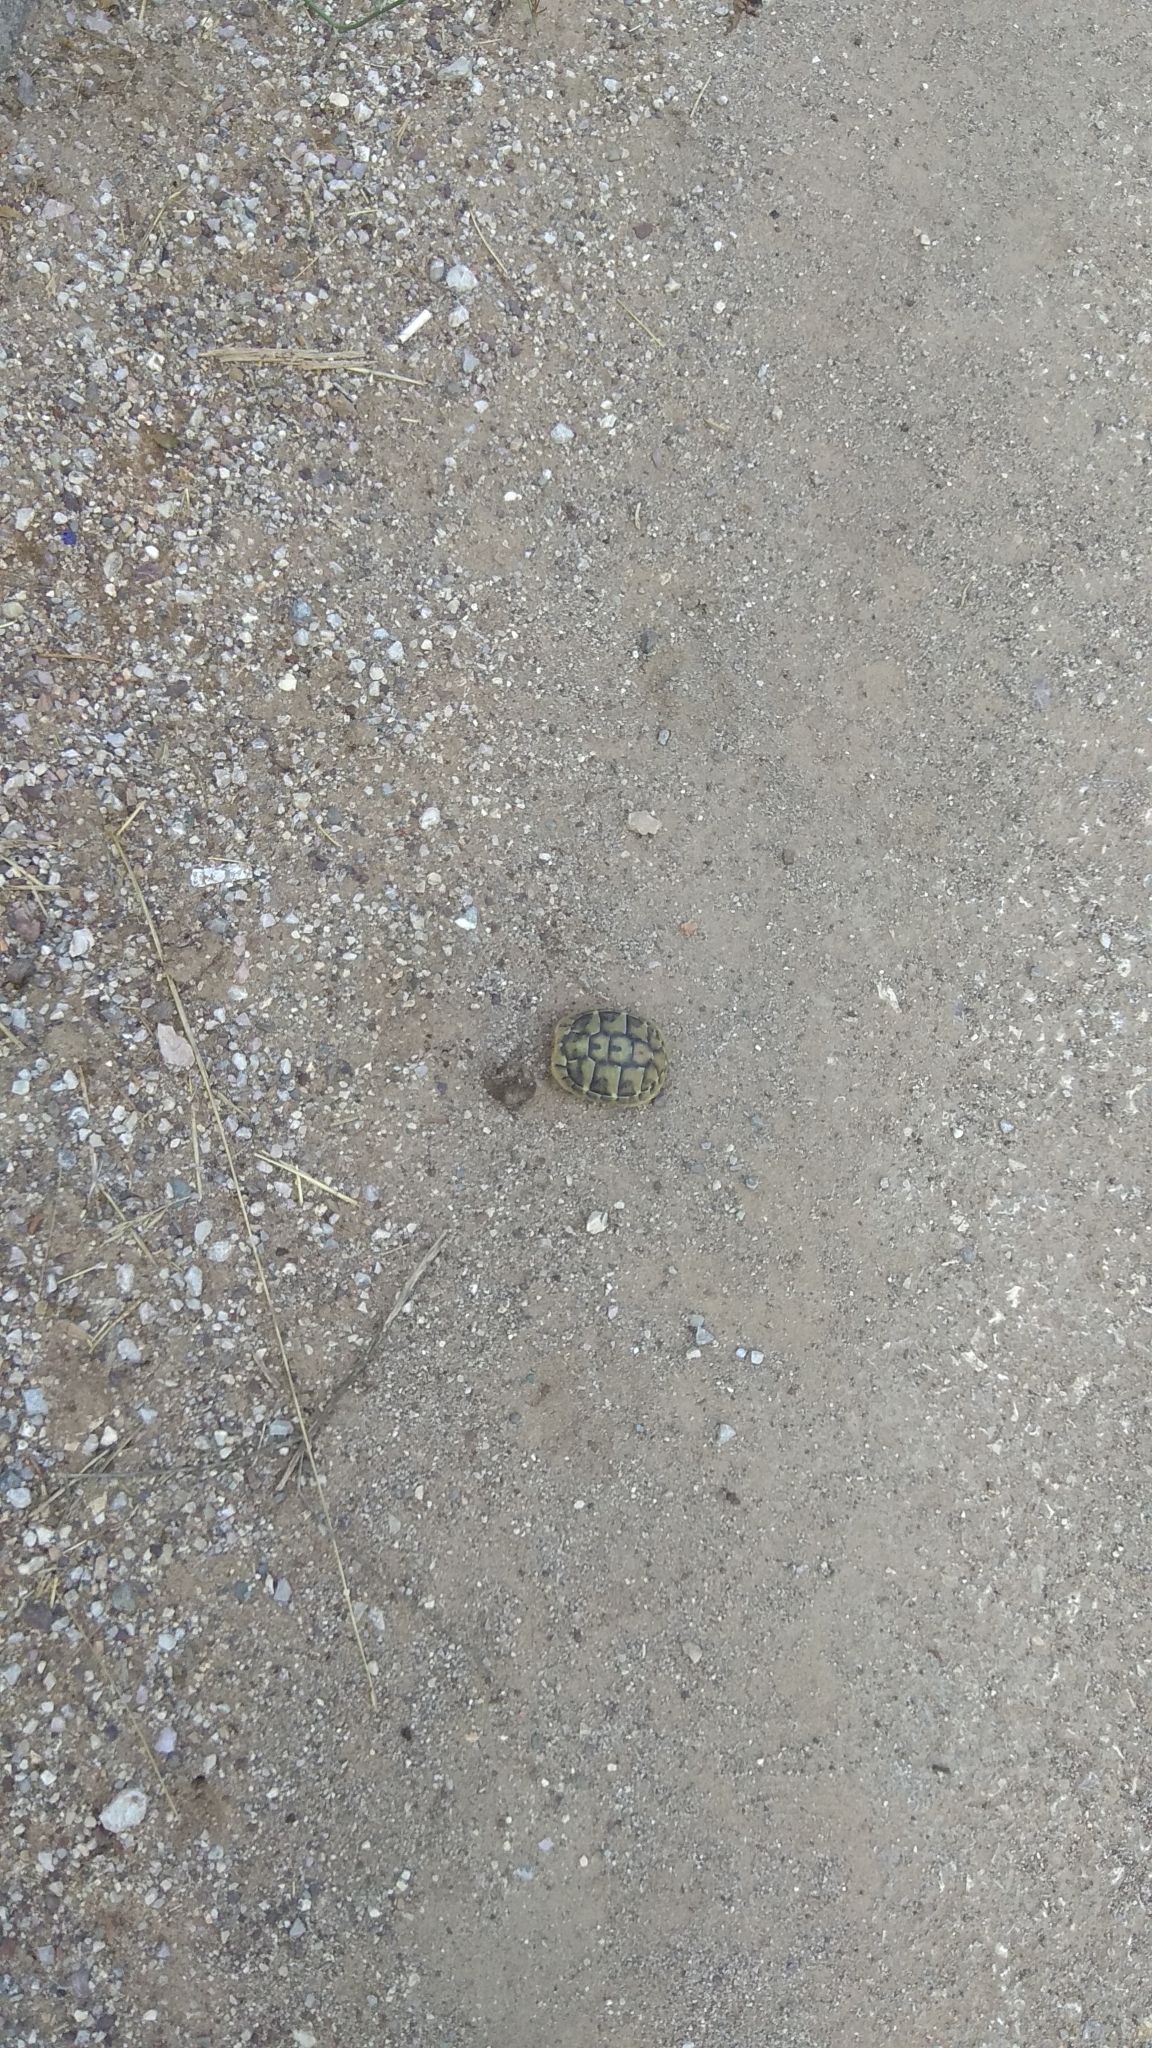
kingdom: Animalia
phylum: Chordata
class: Testudines
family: Testudinidae
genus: Testudo
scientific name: Testudo hermanni
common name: Hermann's tortoise
